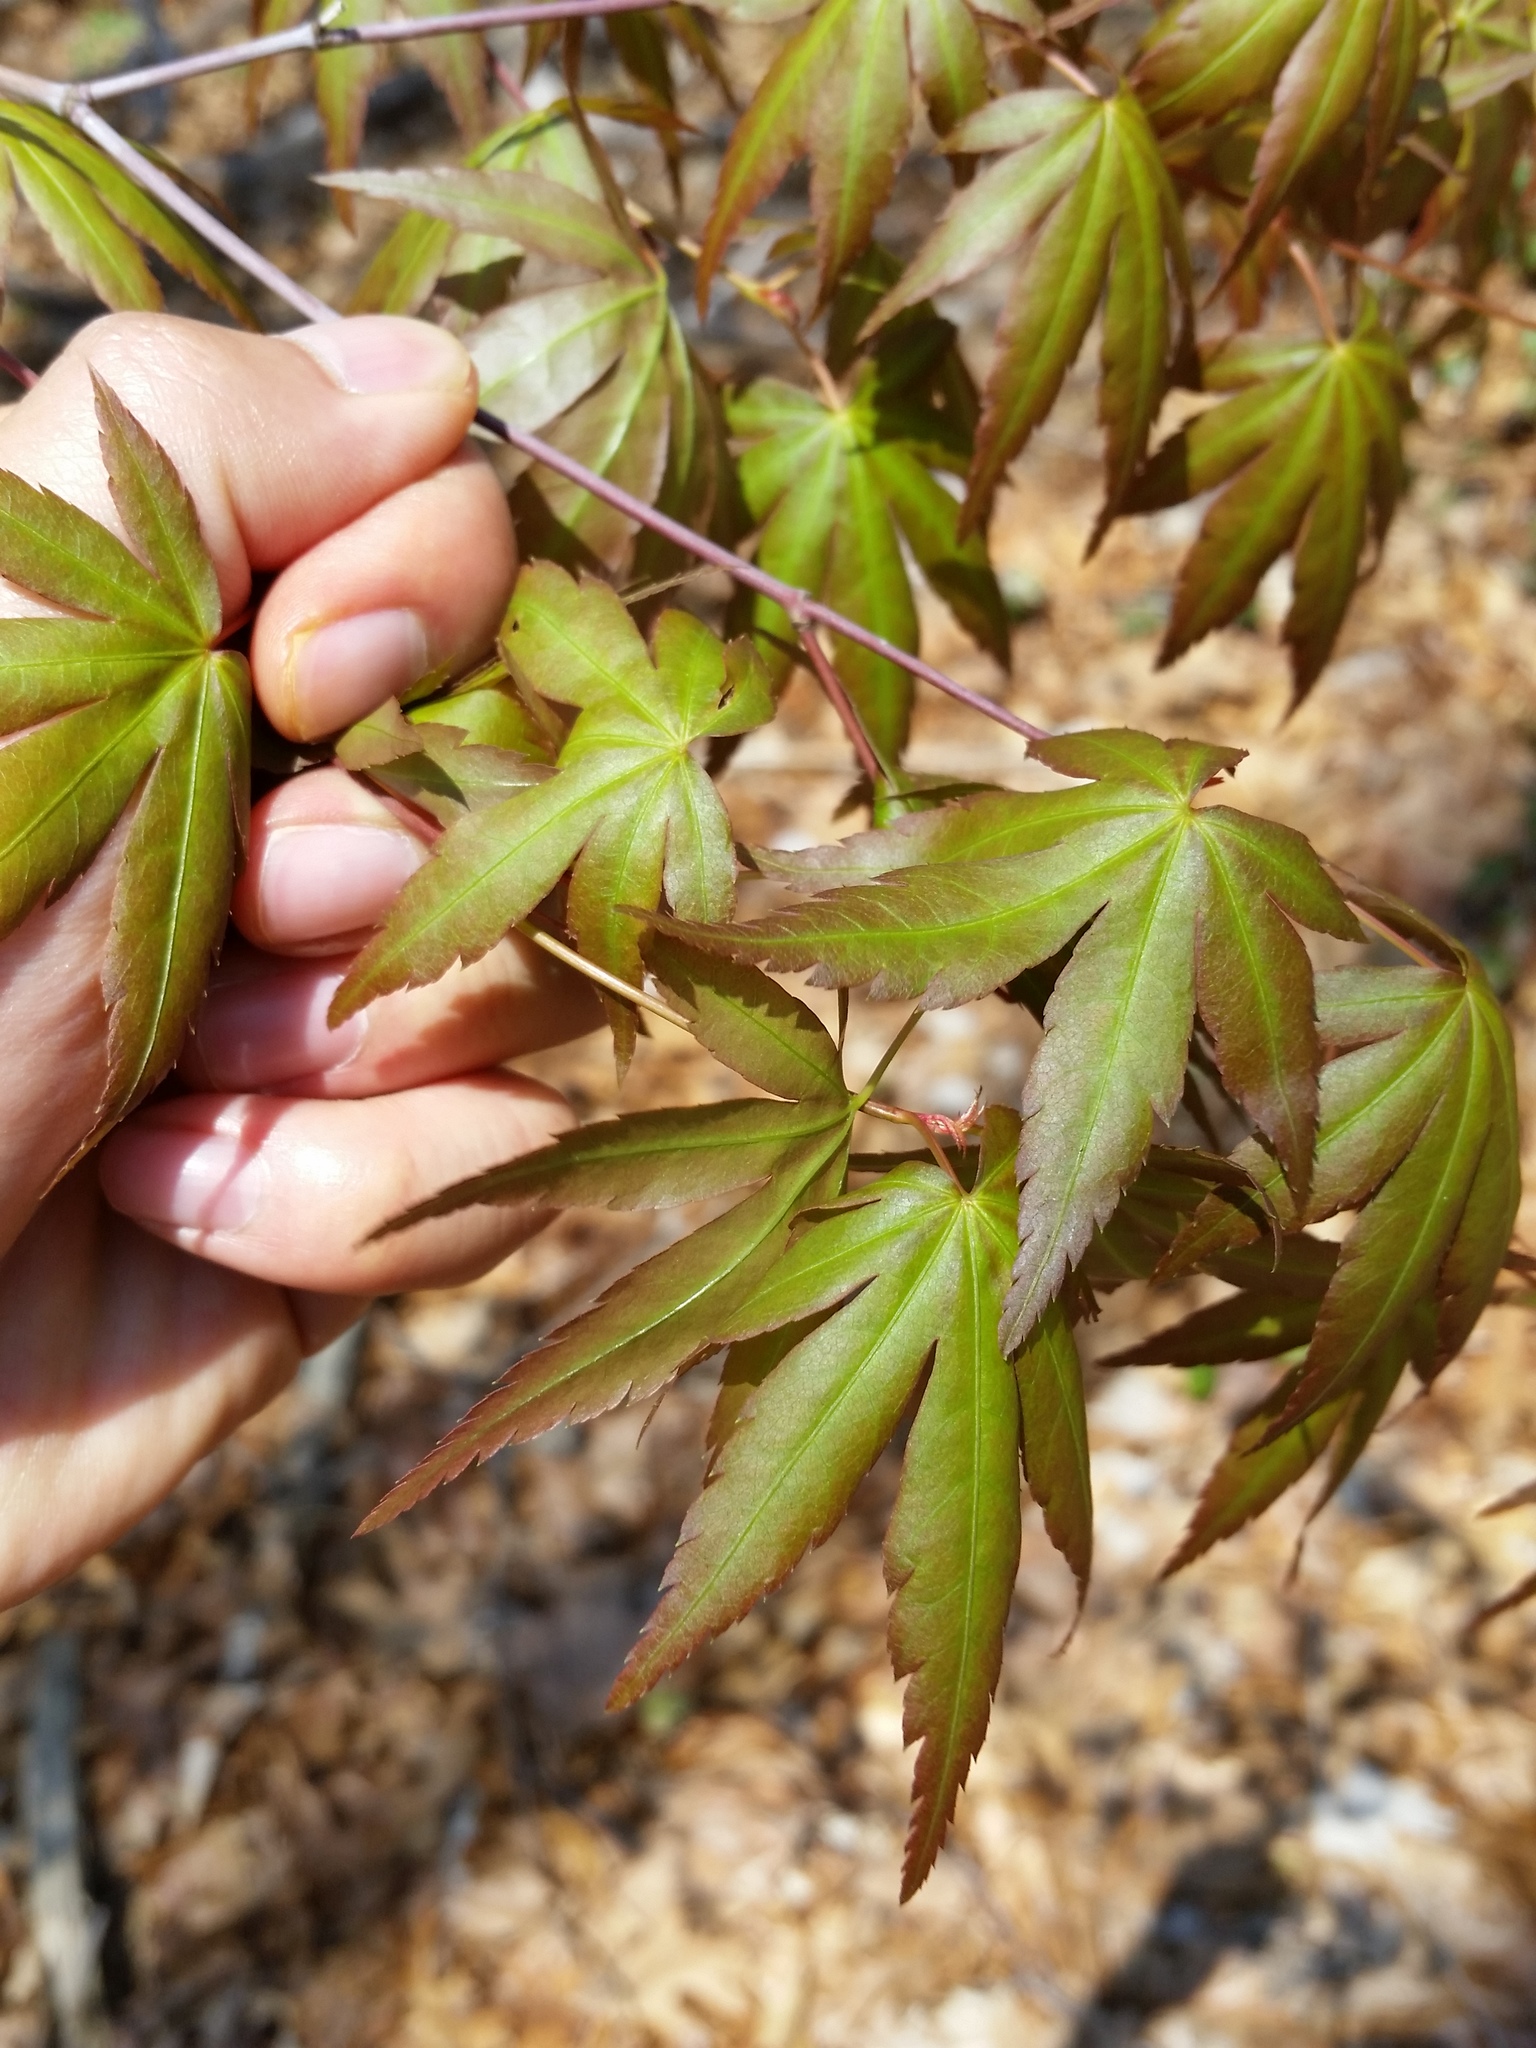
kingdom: Plantae
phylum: Tracheophyta
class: Magnoliopsida
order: Sapindales
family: Sapindaceae
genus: Acer
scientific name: Acer palmatum
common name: Japanese maple
